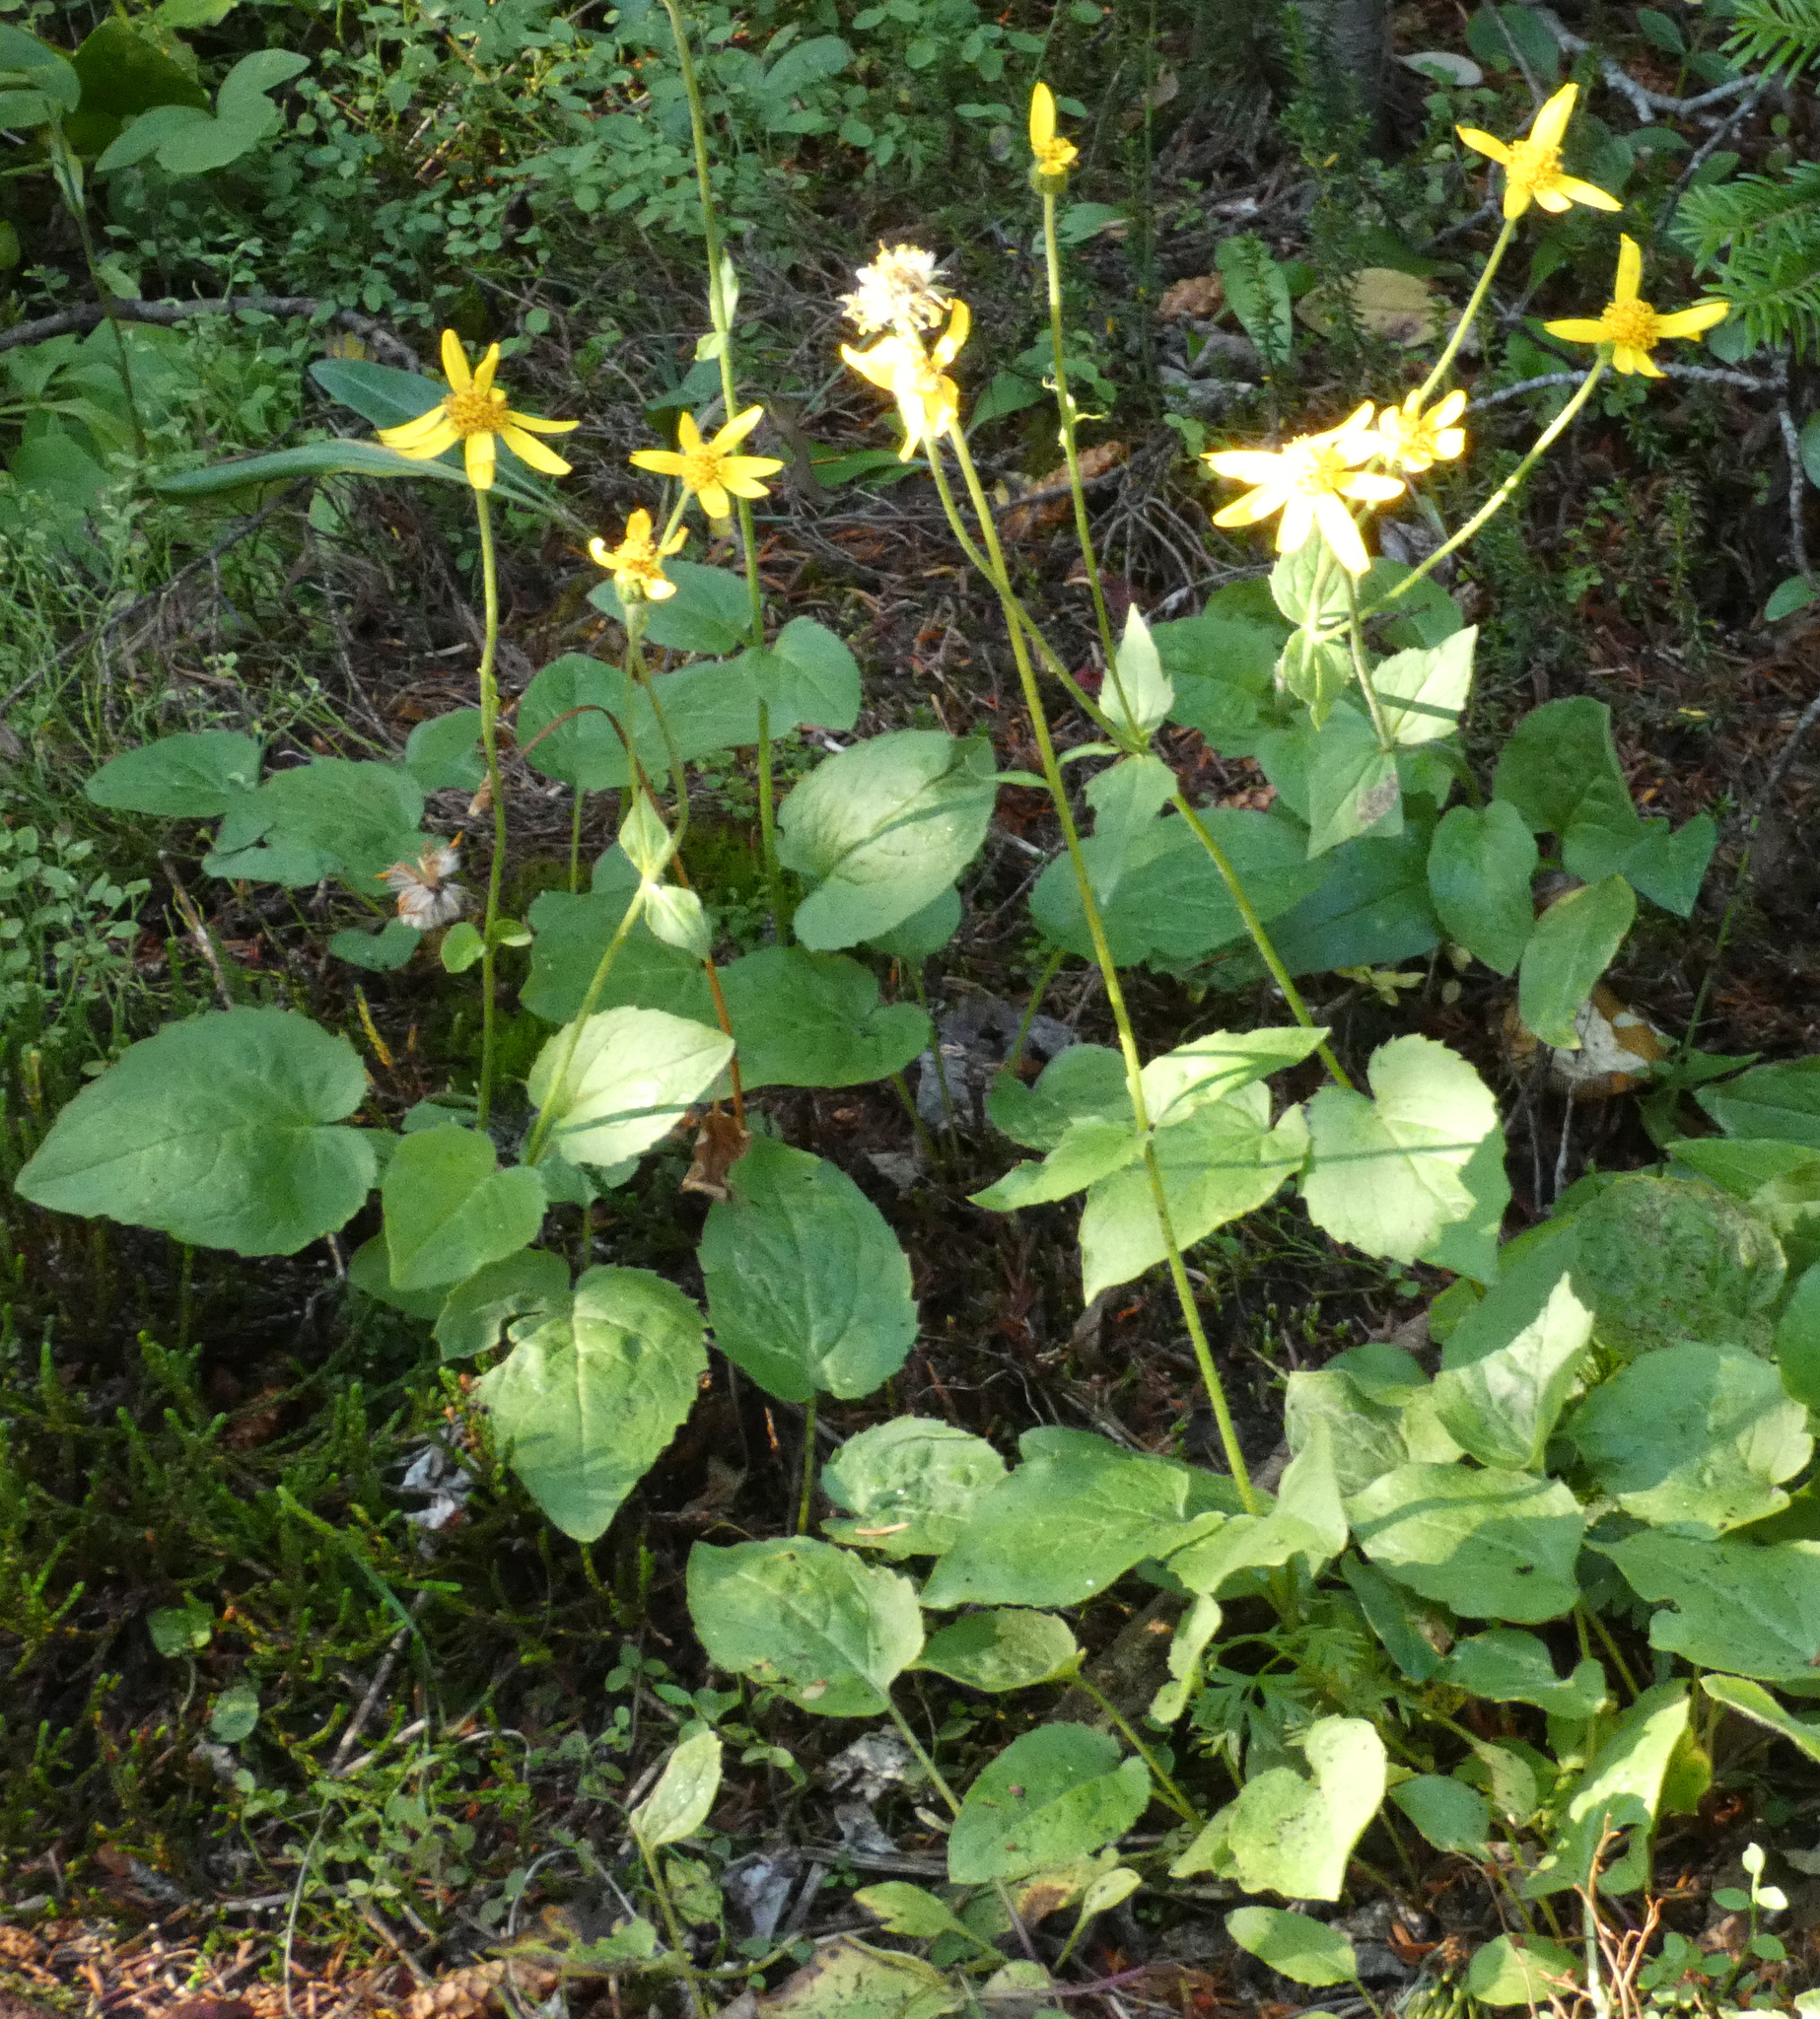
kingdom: Plantae
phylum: Tracheophyta
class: Magnoliopsida
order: Asterales
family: Asteraceae
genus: Arnica
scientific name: Arnica cordifolia
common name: Heart-leaf arnica
